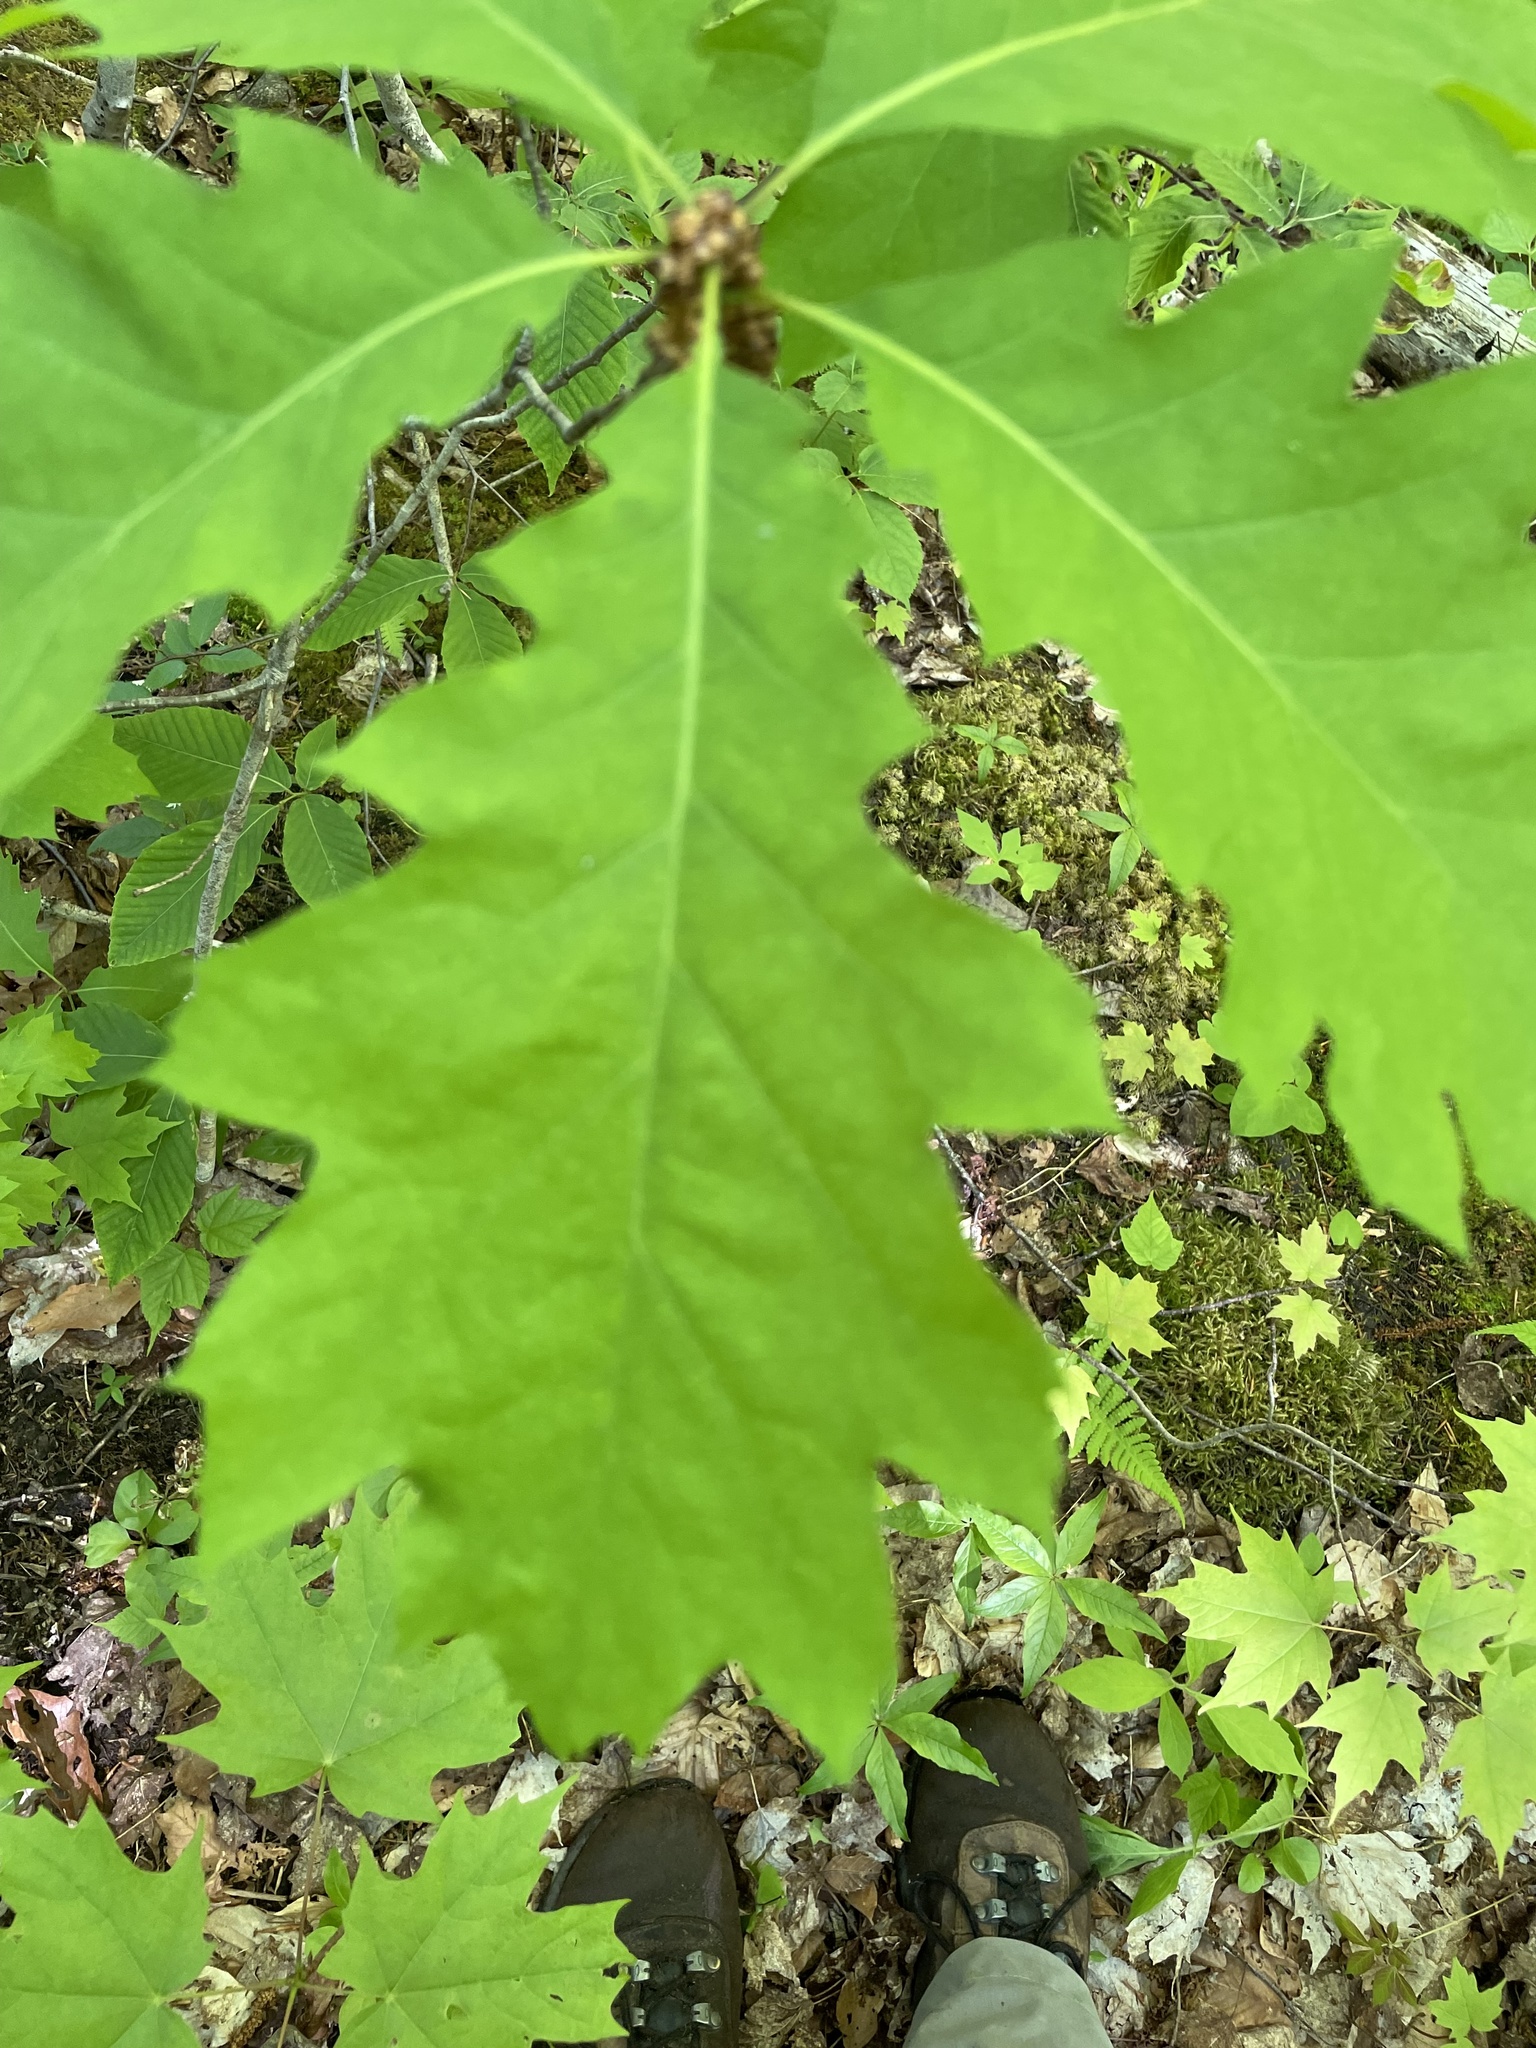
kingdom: Plantae
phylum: Tracheophyta
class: Magnoliopsida
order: Fagales
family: Fagaceae
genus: Quercus
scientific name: Quercus rubra
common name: Red oak
